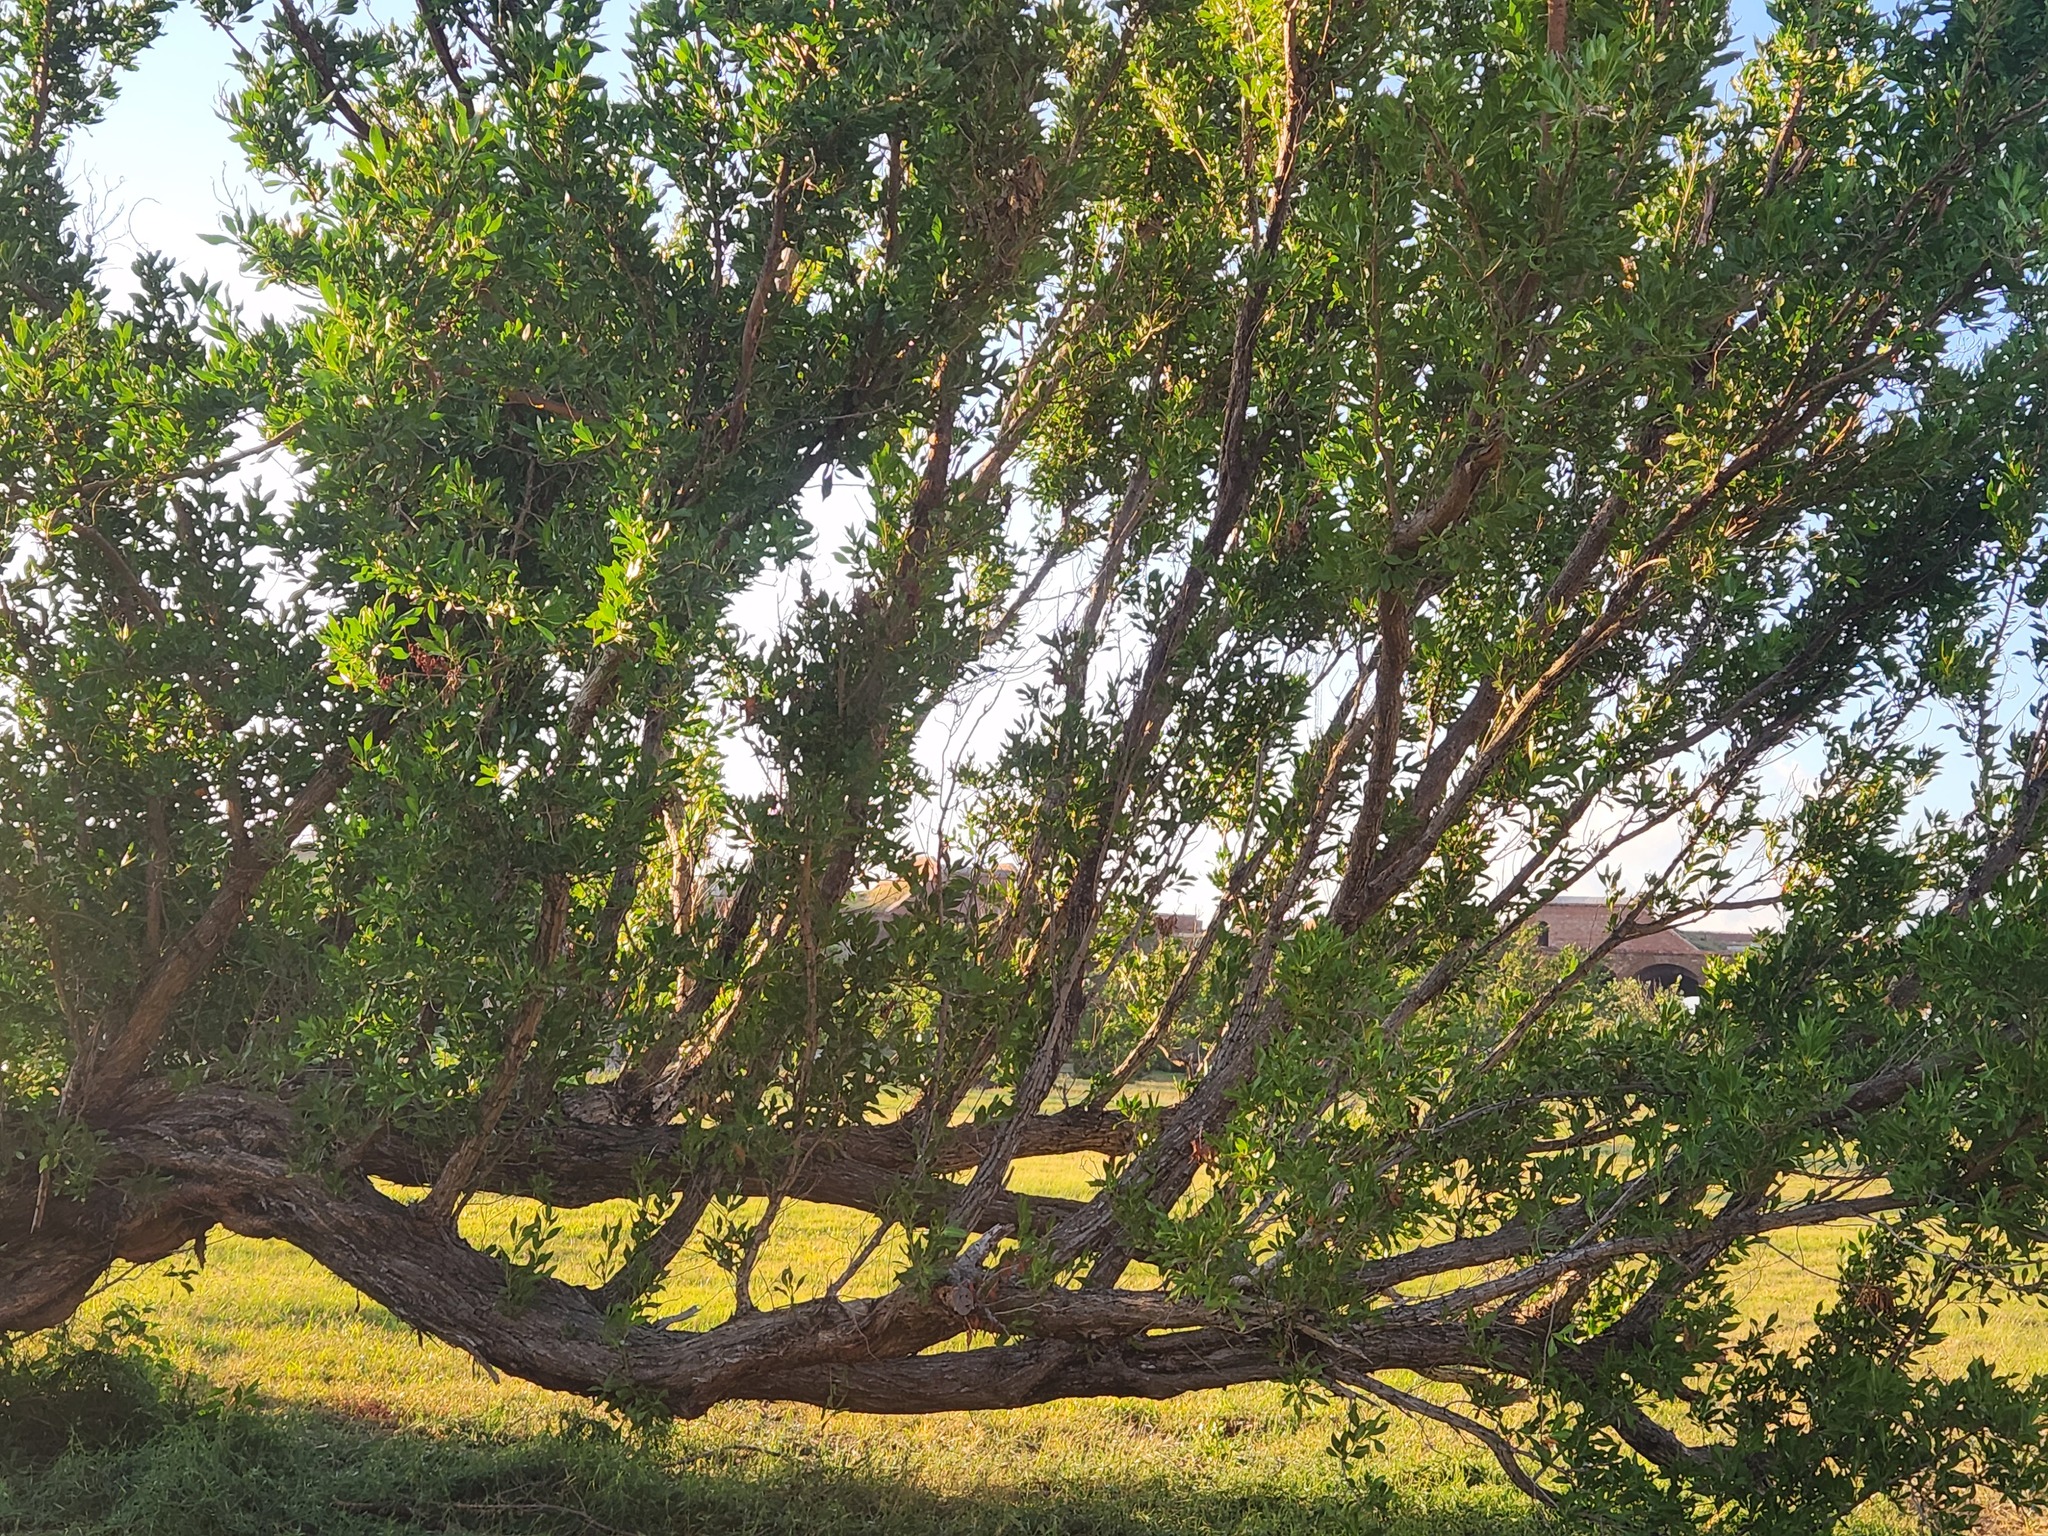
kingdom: Plantae
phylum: Tracheophyta
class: Magnoliopsida
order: Myrtales
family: Combretaceae
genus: Conocarpus
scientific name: Conocarpus erectus
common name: Button mangrove
